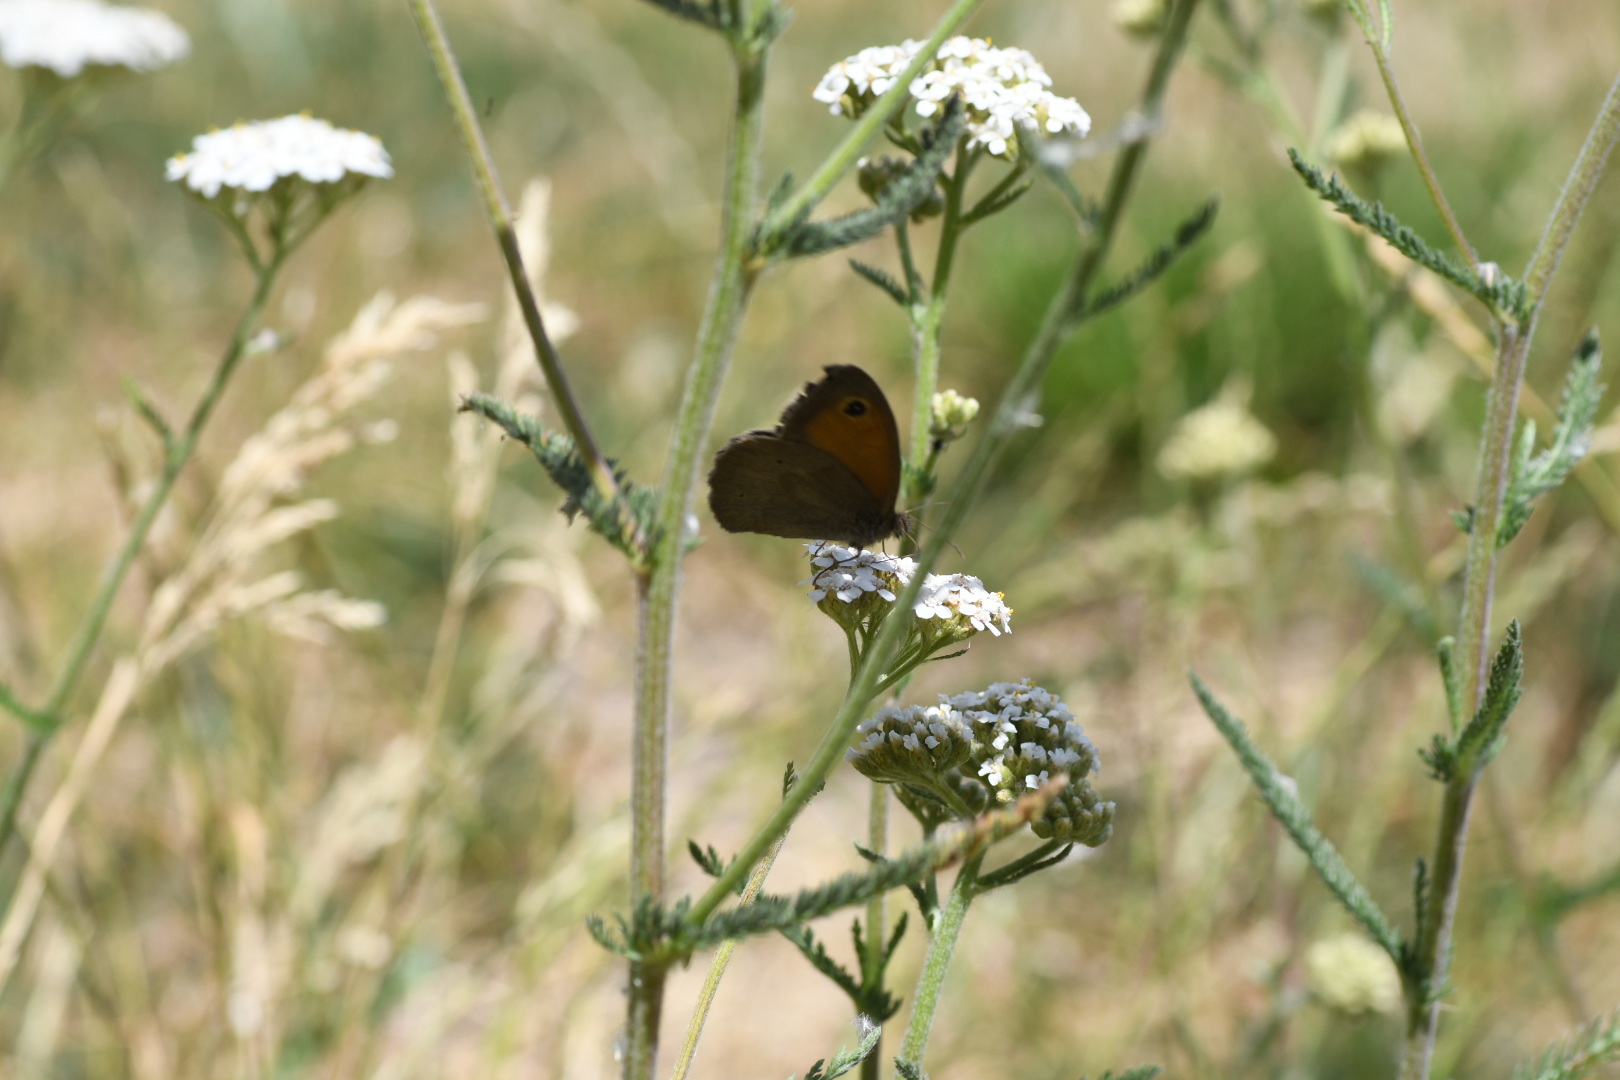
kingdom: Animalia
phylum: Arthropoda
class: Insecta
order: Lepidoptera
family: Nymphalidae
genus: Maniola
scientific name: Maniola jurtina
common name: Meadow brown
